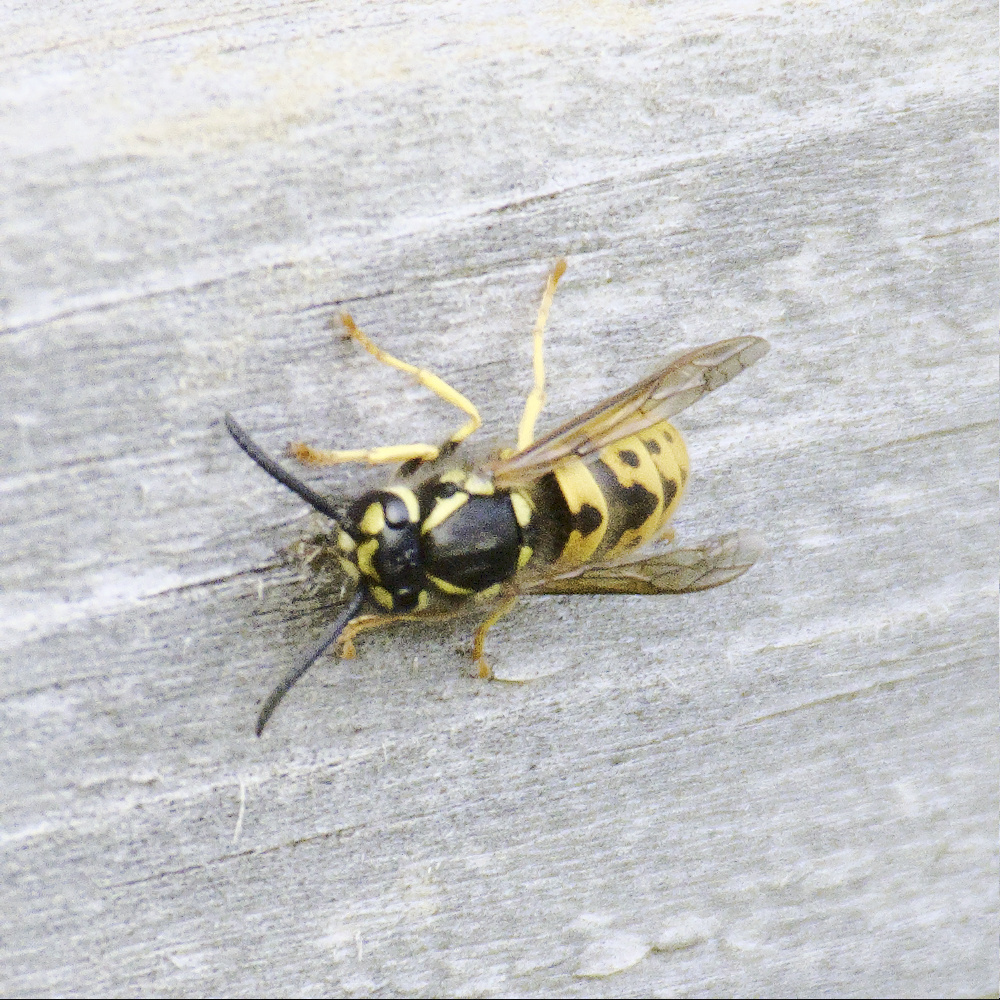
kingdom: Animalia
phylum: Arthropoda
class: Insecta
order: Hymenoptera
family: Vespidae
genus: Vespula
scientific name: Vespula germanica
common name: German wasp
